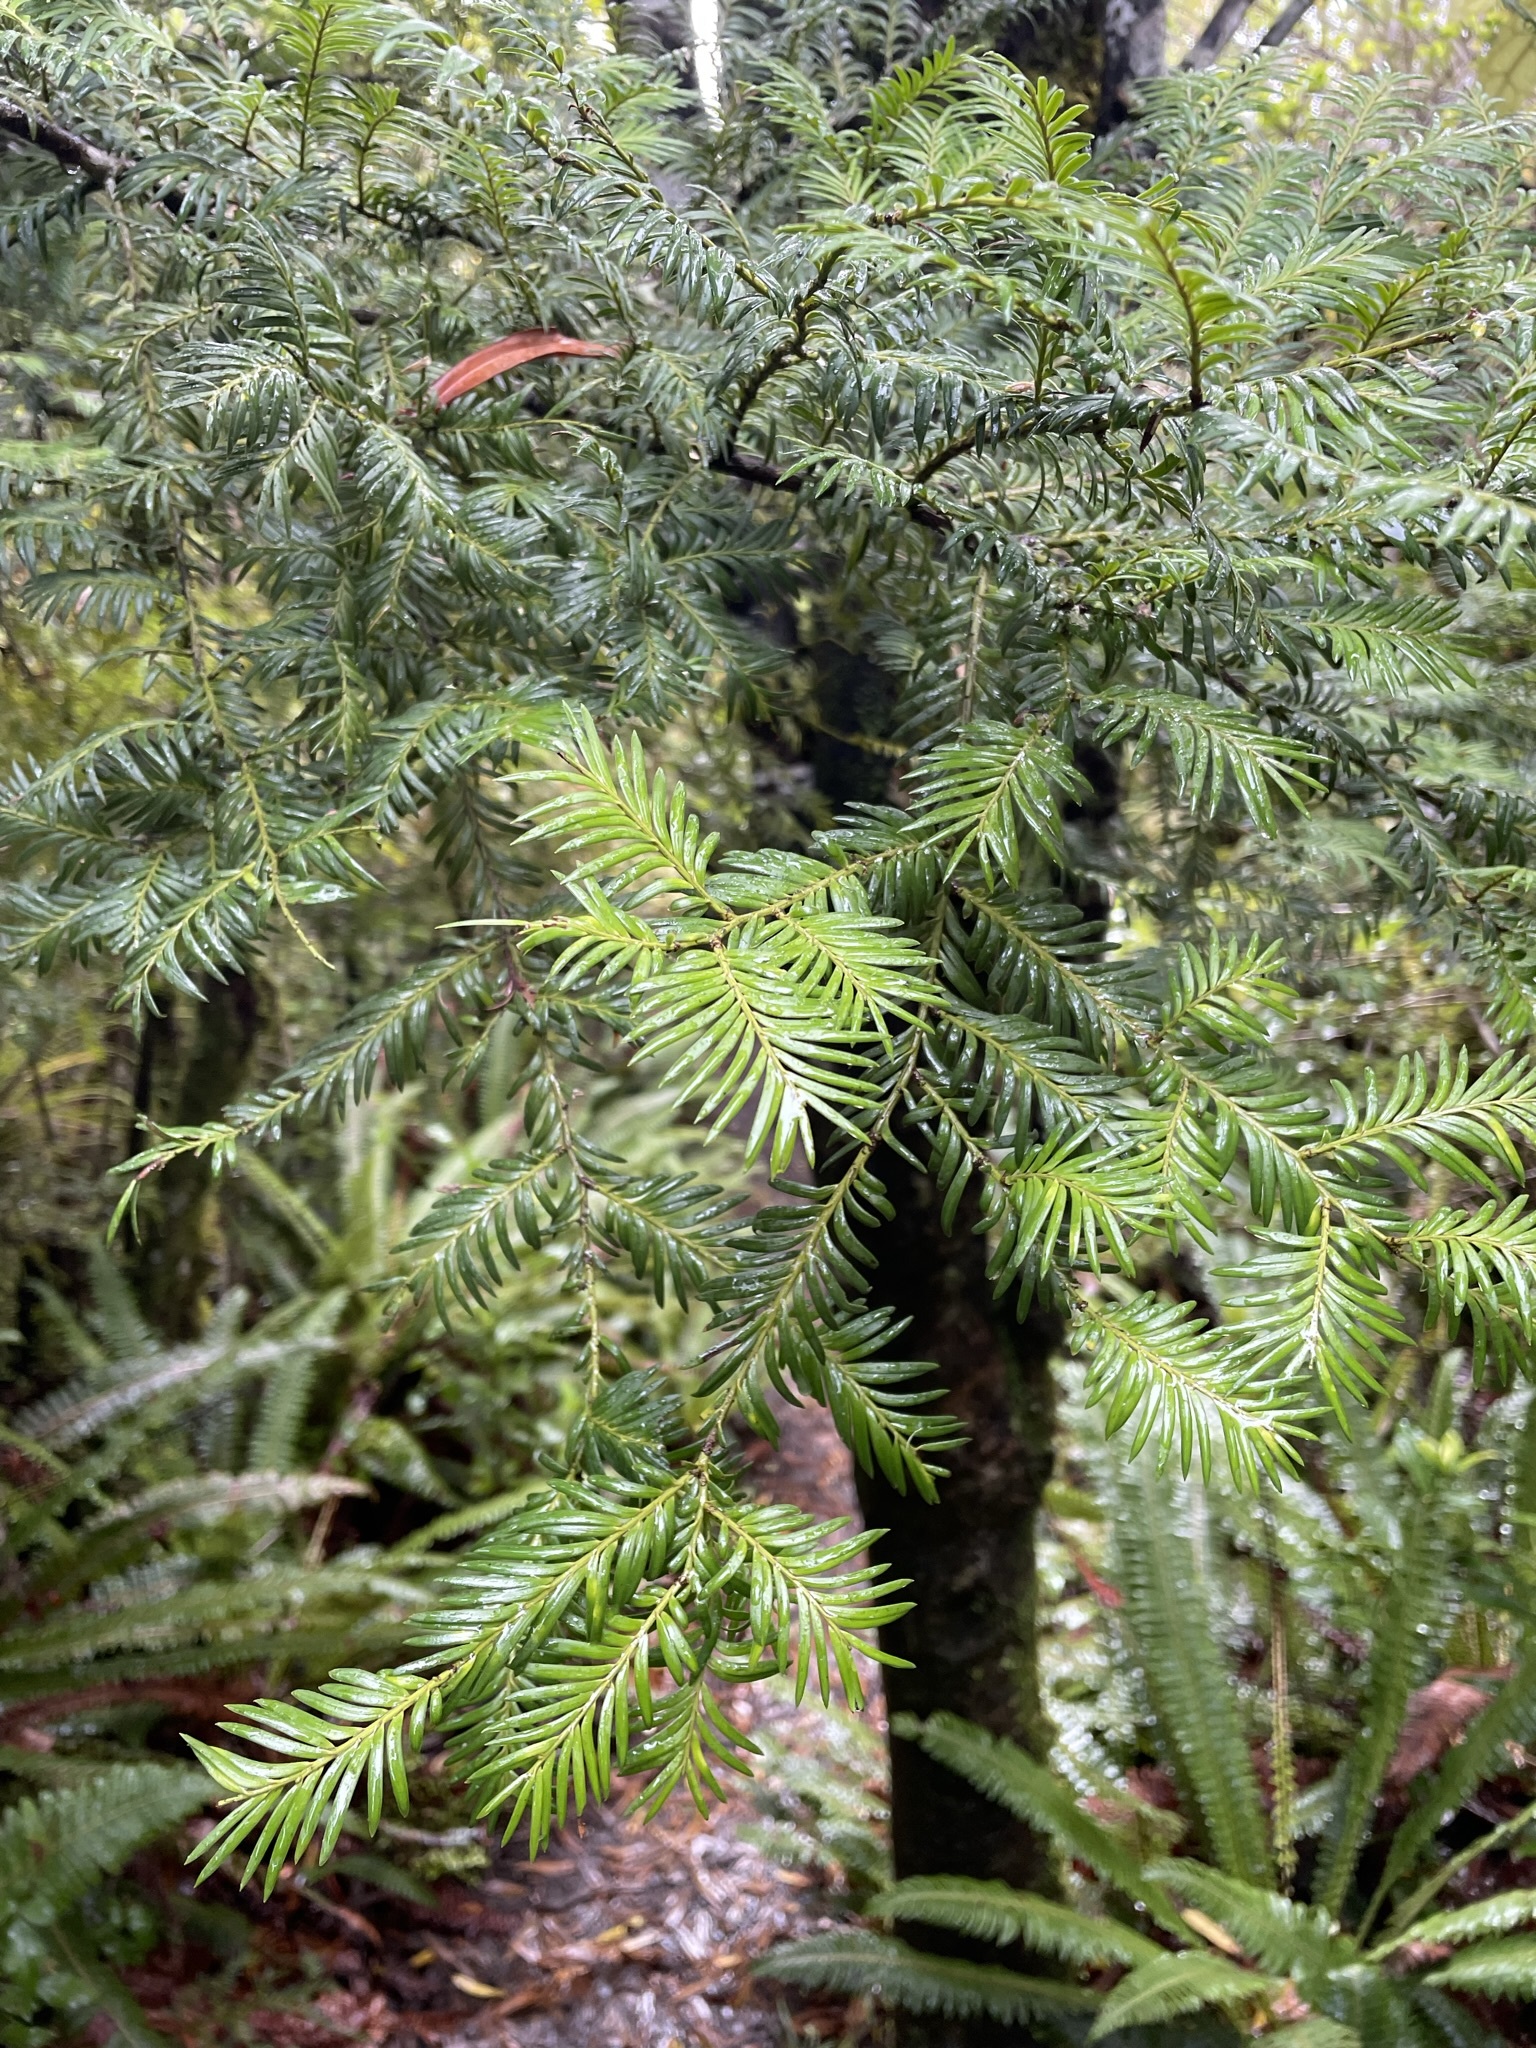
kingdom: Plantae
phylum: Tracheophyta
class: Pinopsida
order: Pinales
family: Podocarpaceae
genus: Prumnopitys
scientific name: Prumnopitys ferruginea
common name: Brown pine
